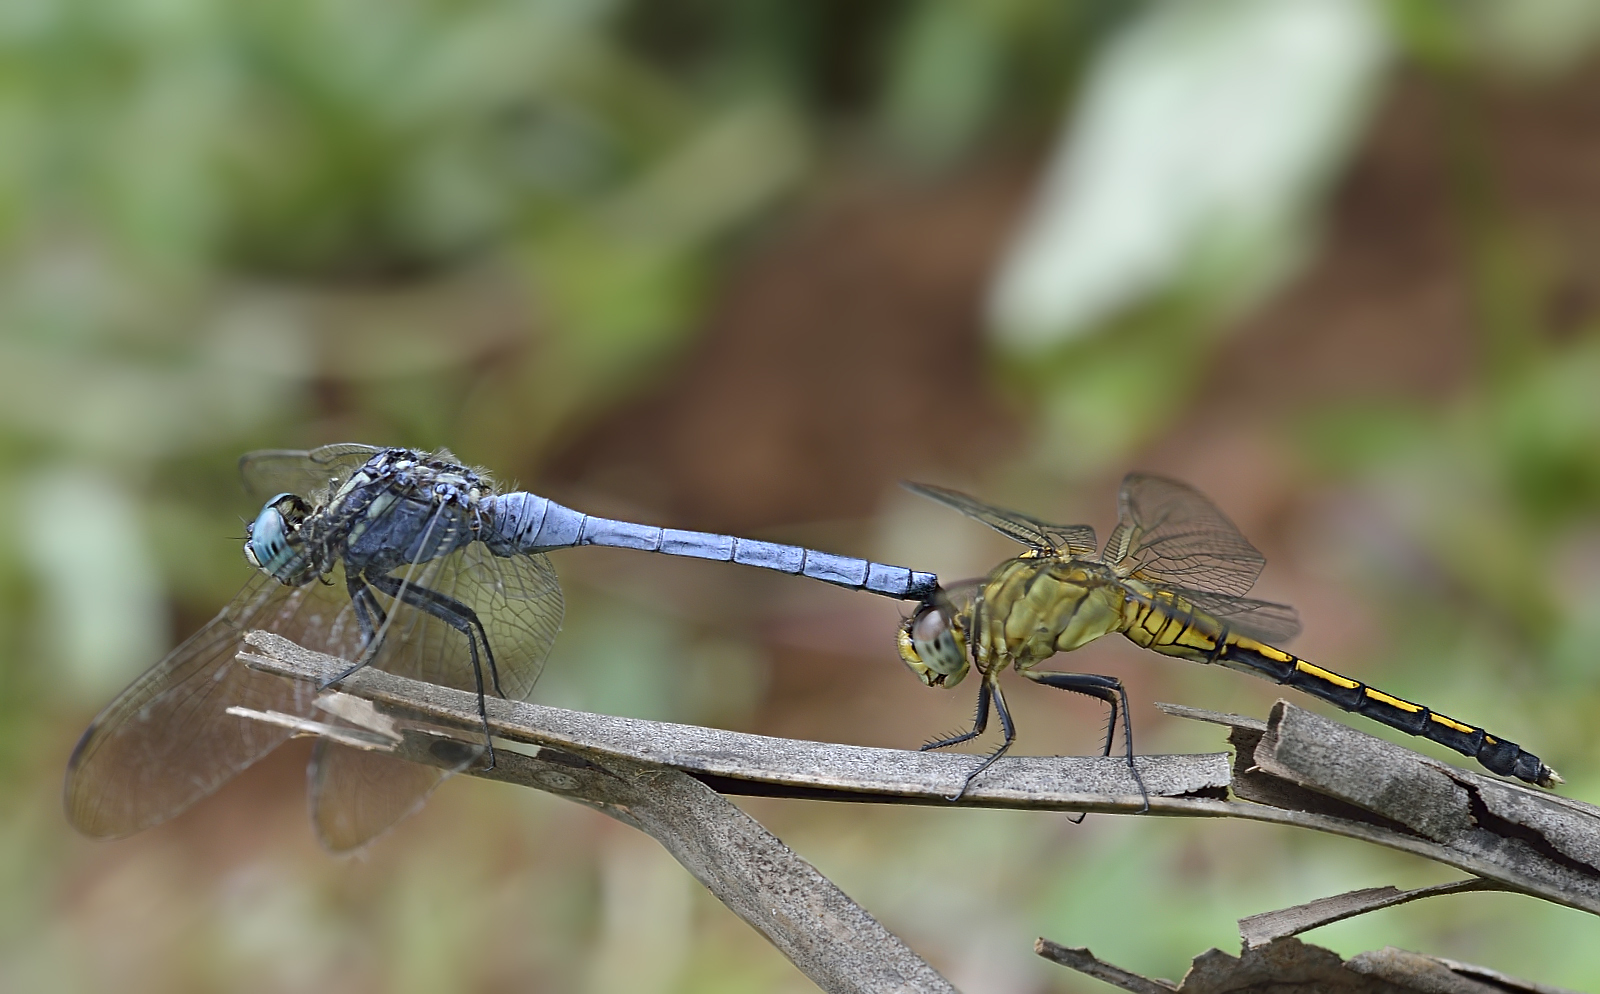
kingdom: Animalia
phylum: Arthropoda
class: Insecta
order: Odonata
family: Libellulidae
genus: Orthetrum
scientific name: Orthetrum luzonicum
